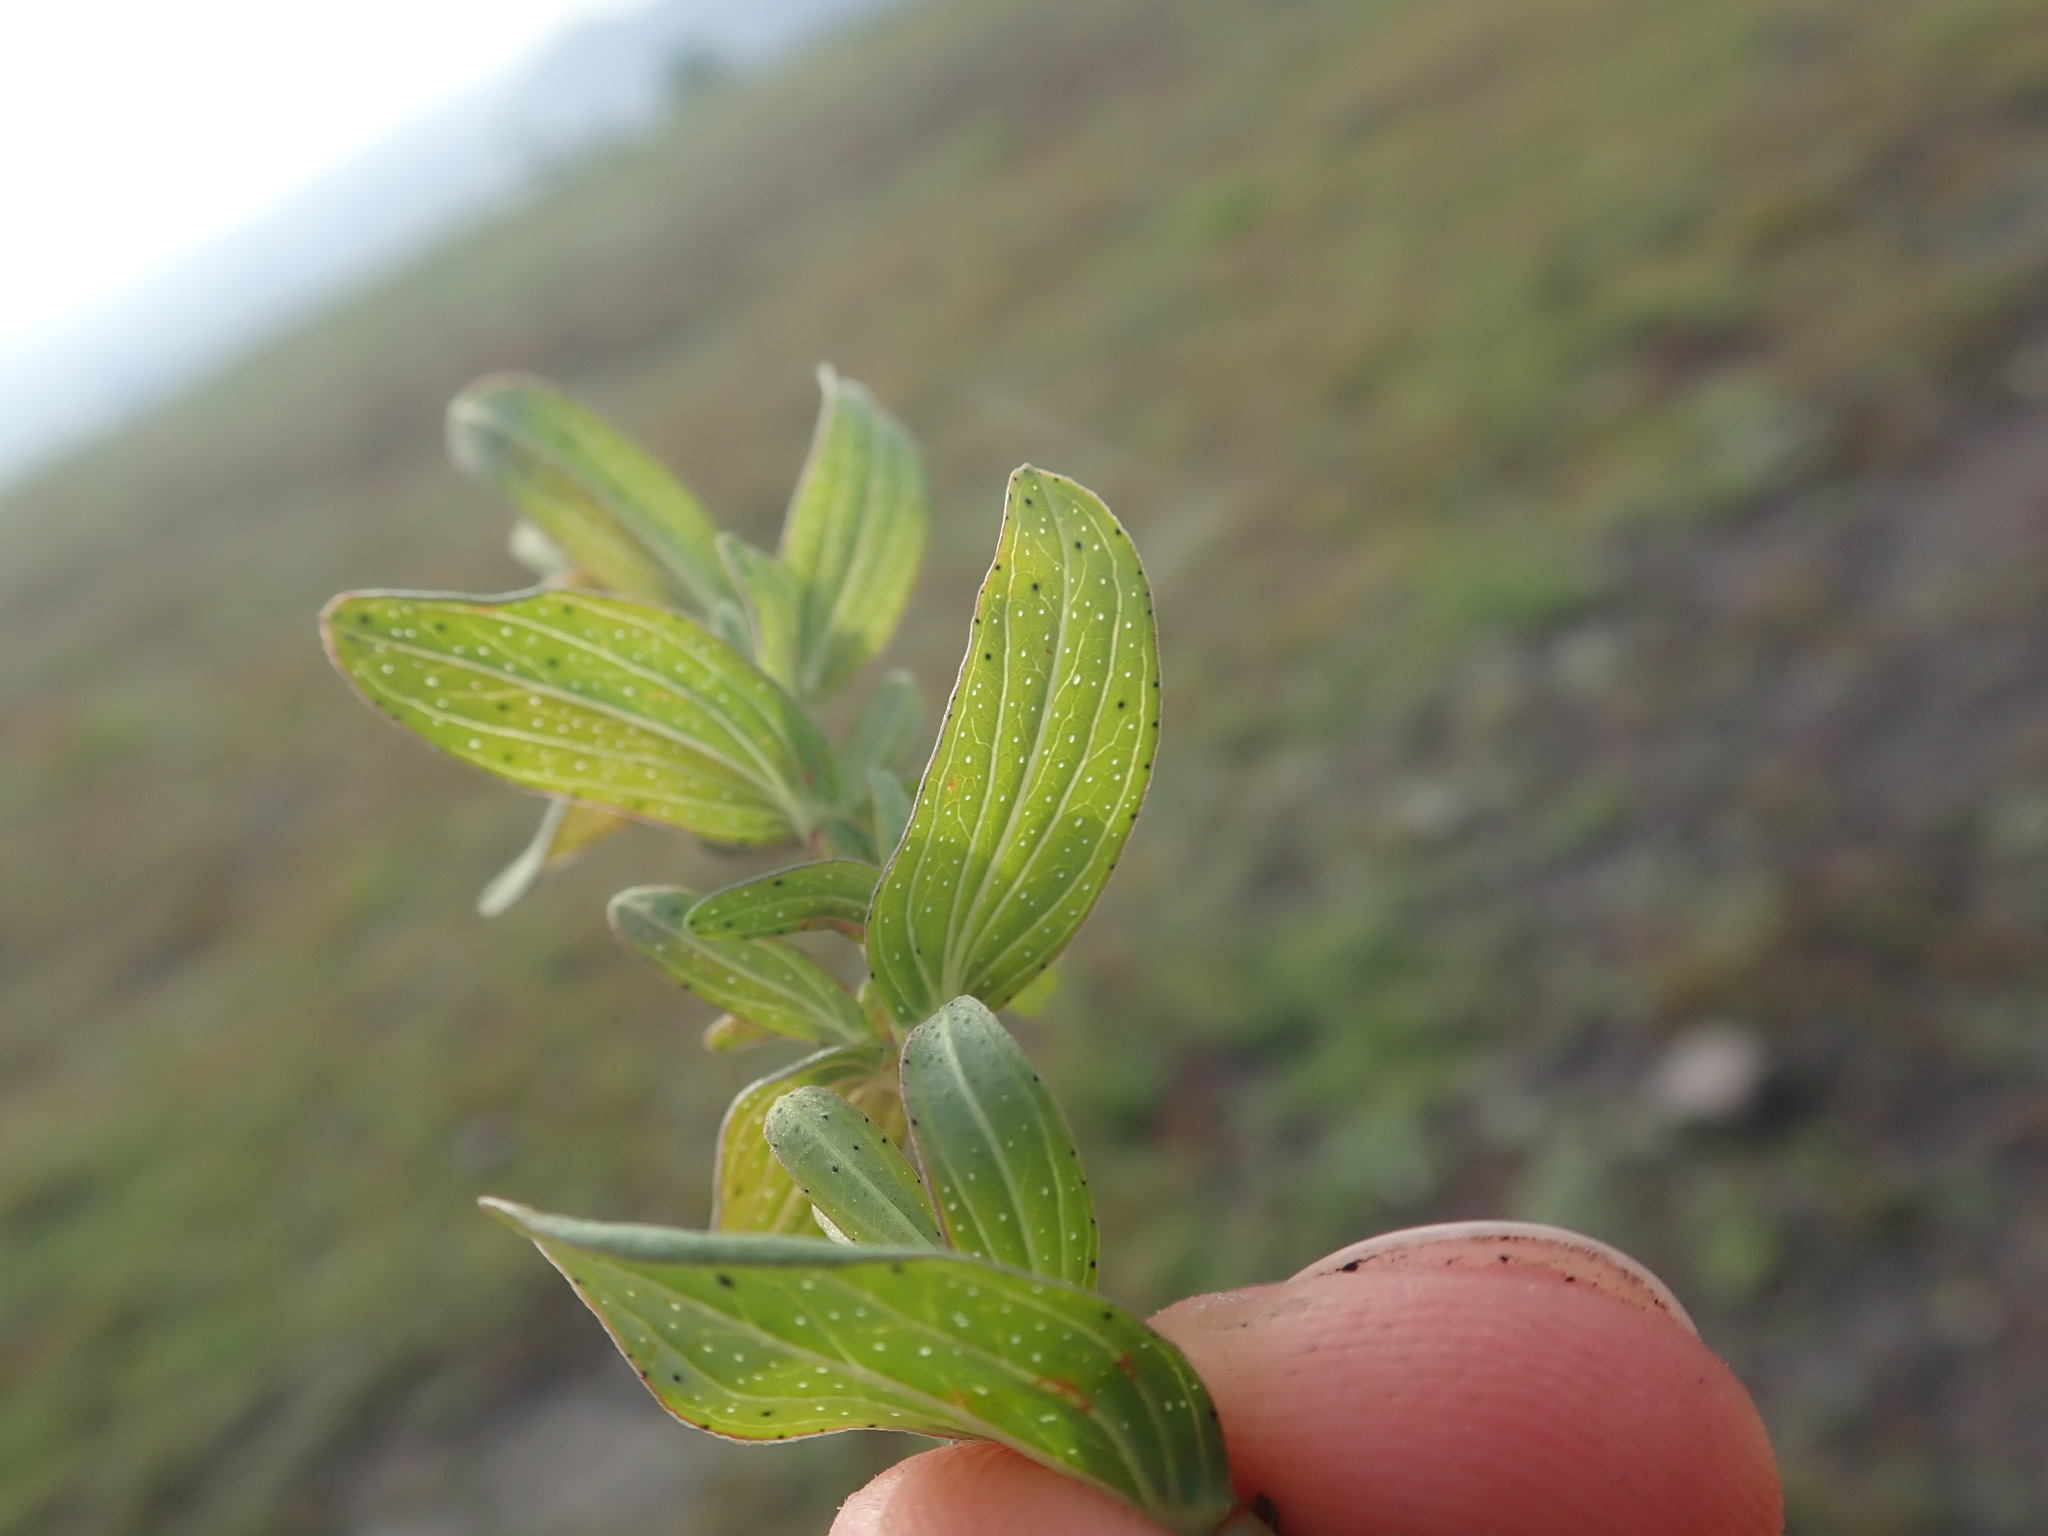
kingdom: Plantae
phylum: Tracheophyta
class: Magnoliopsida
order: Malpighiales
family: Hypericaceae
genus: Hypericum
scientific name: Hypericum perforatum
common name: Common st. johnswort
